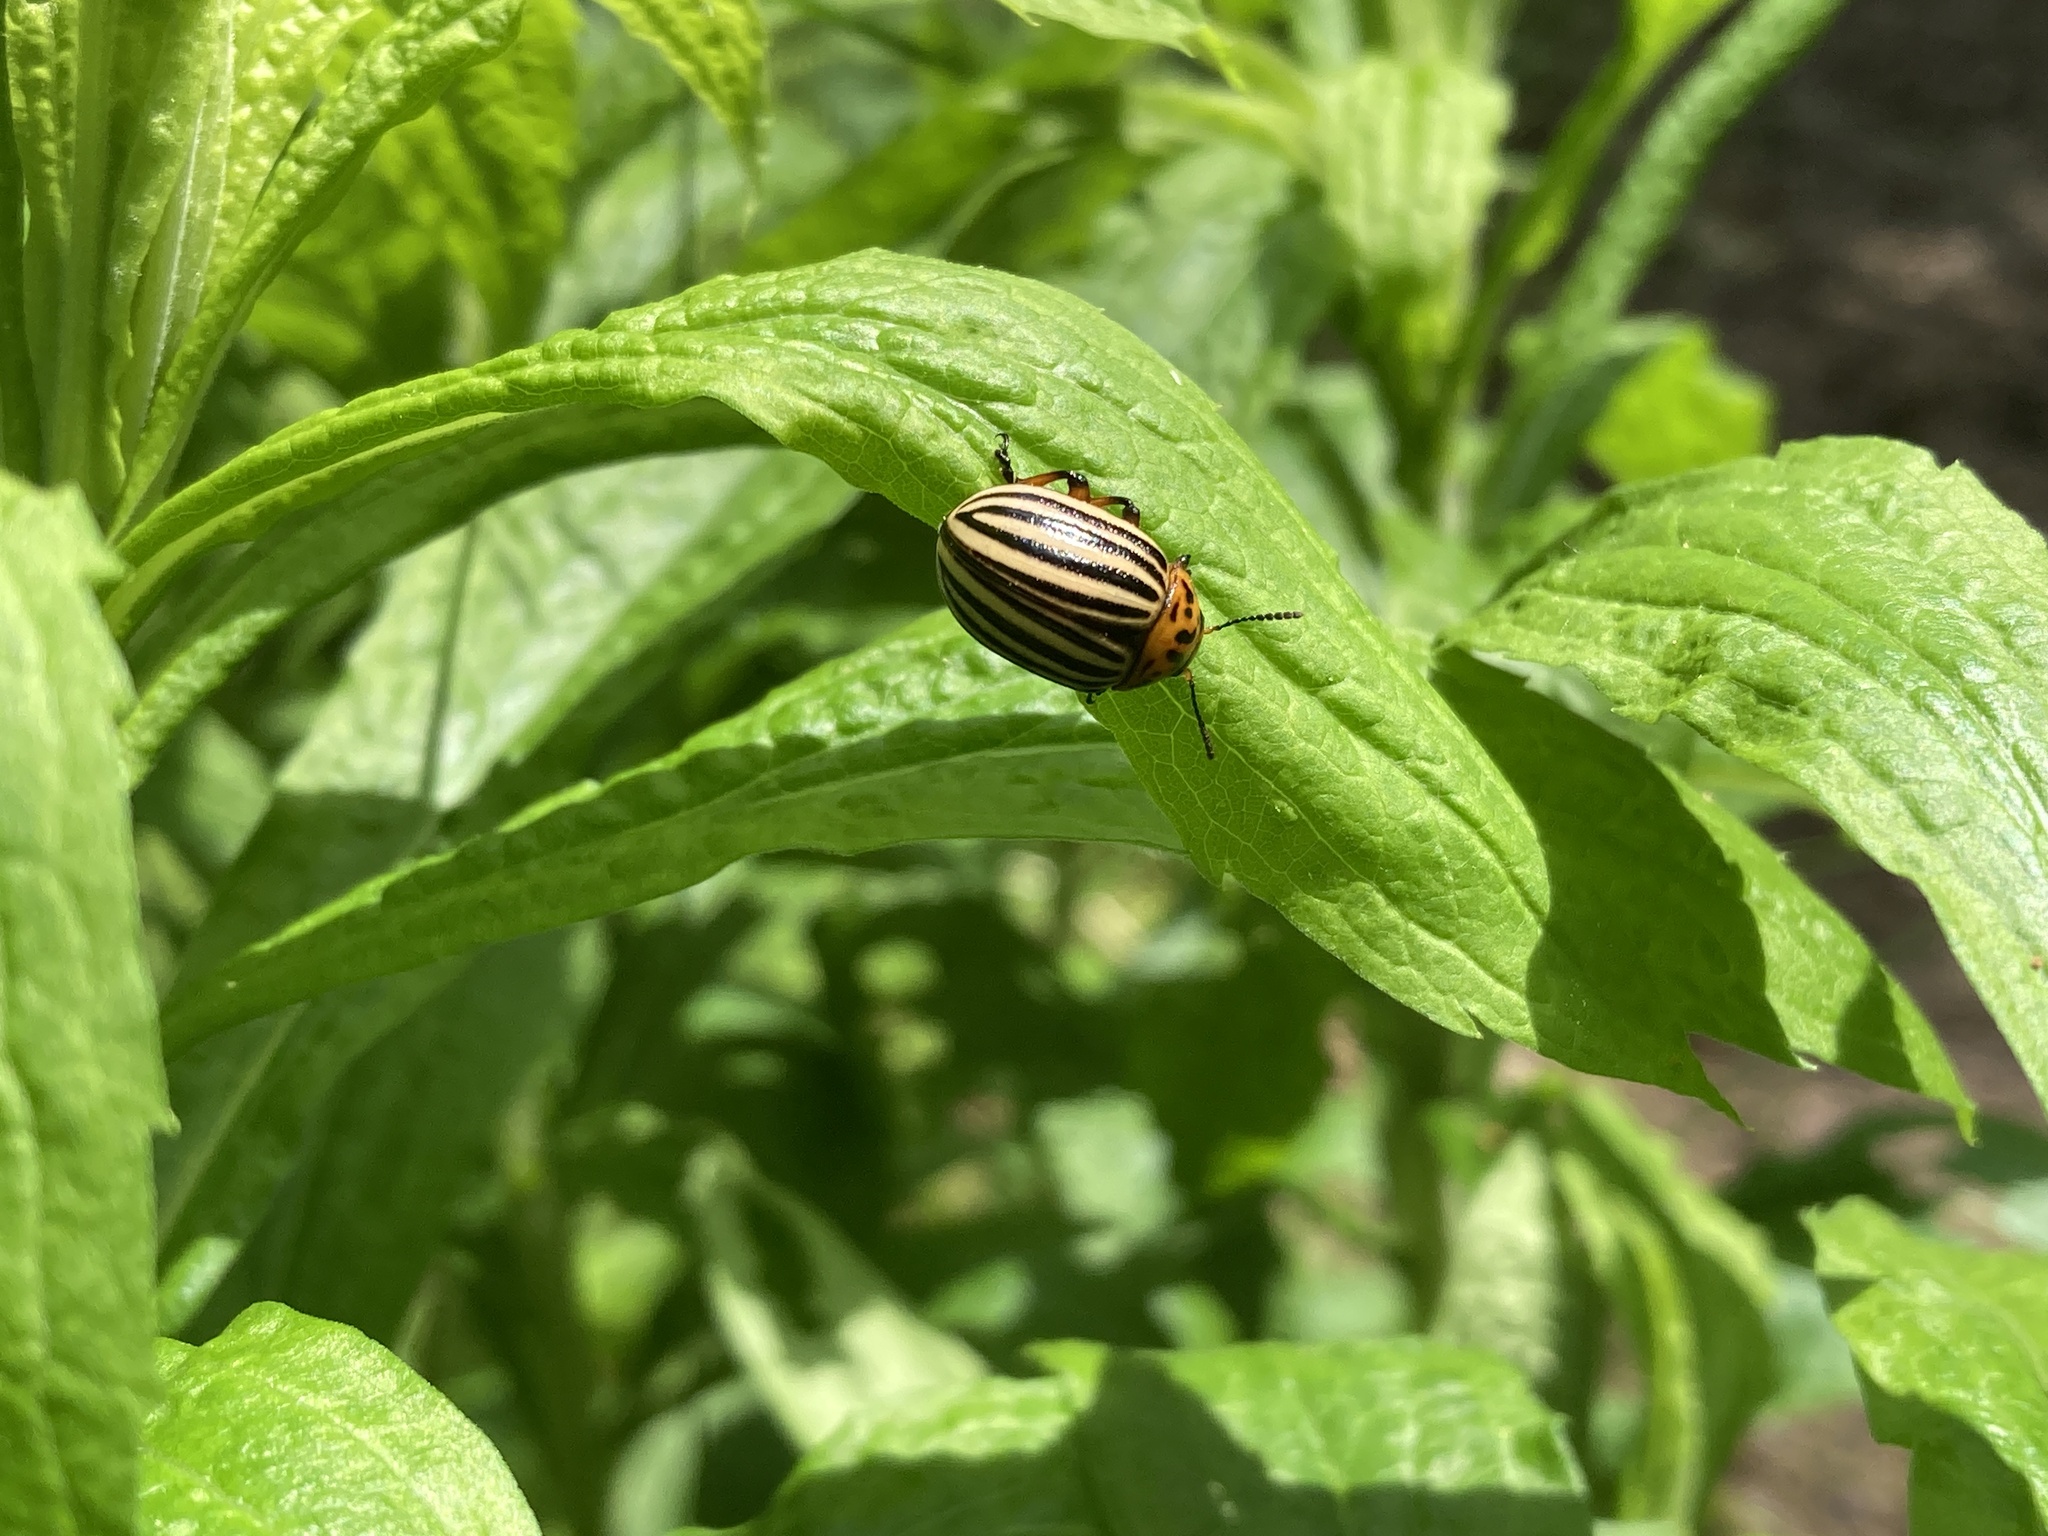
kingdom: Animalia
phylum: Arthropoda
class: Insecta
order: Coleoptera
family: Chrysomelidae
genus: Leptinotarsa
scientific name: Leptinotarsa decemlineata
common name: Colorado potato beetle
